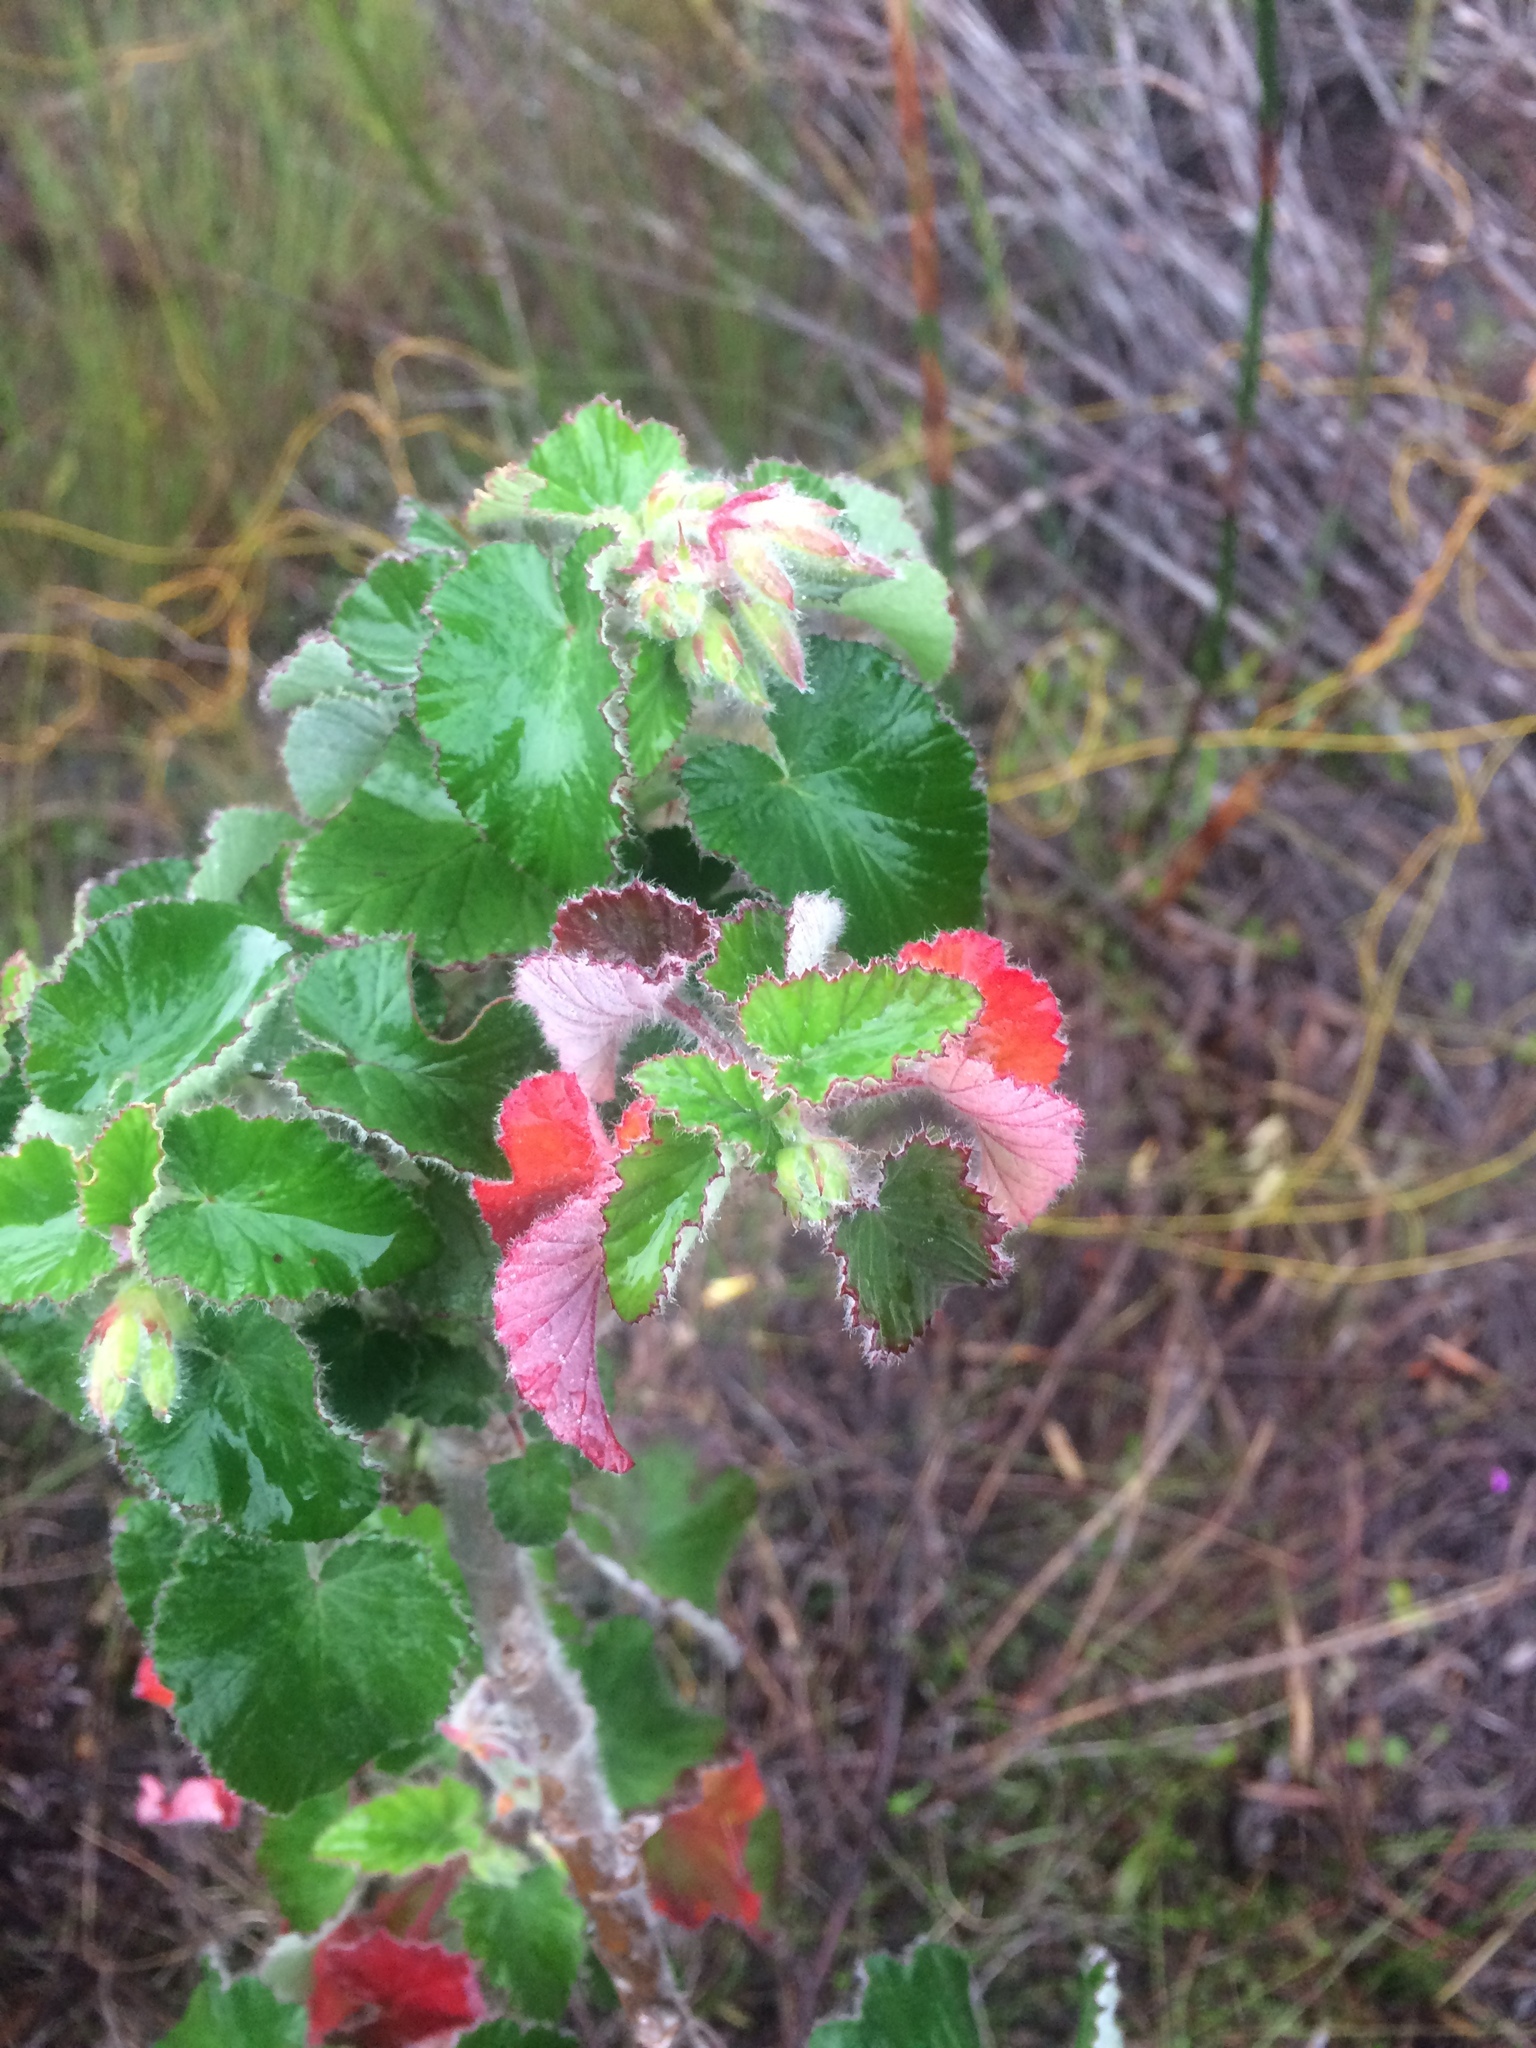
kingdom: Plantae
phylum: Tracheophyta
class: Magnoliopsida
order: Geraniales
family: Geraniaceae
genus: Pelargonium
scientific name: Pelargonium cordifolium
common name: Heart-leaf pelargonium
